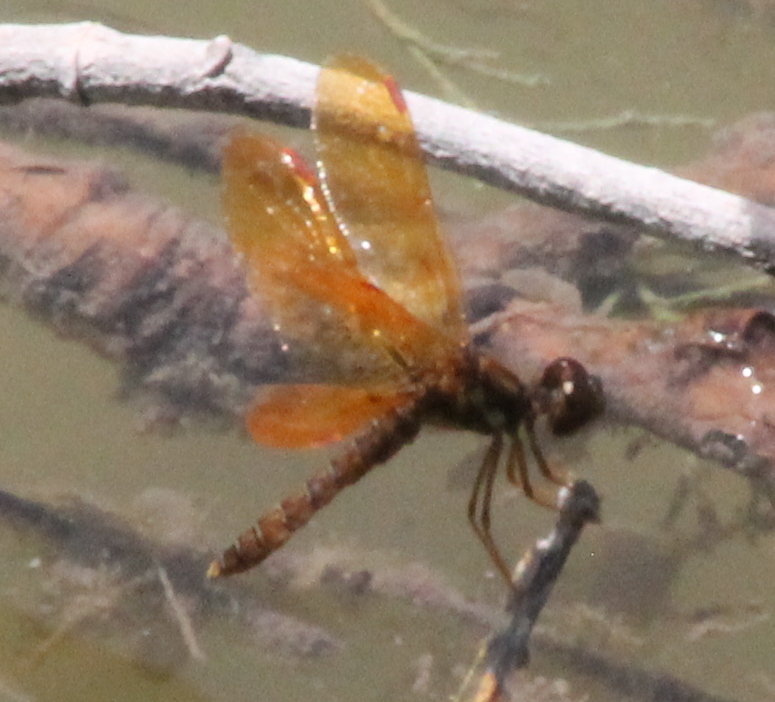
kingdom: Animalia
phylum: Arthropoda
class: Insecta
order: Odonata
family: Libellulidae
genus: Perithemis
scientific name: Perithemis tenera
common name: Eastern amberwing
